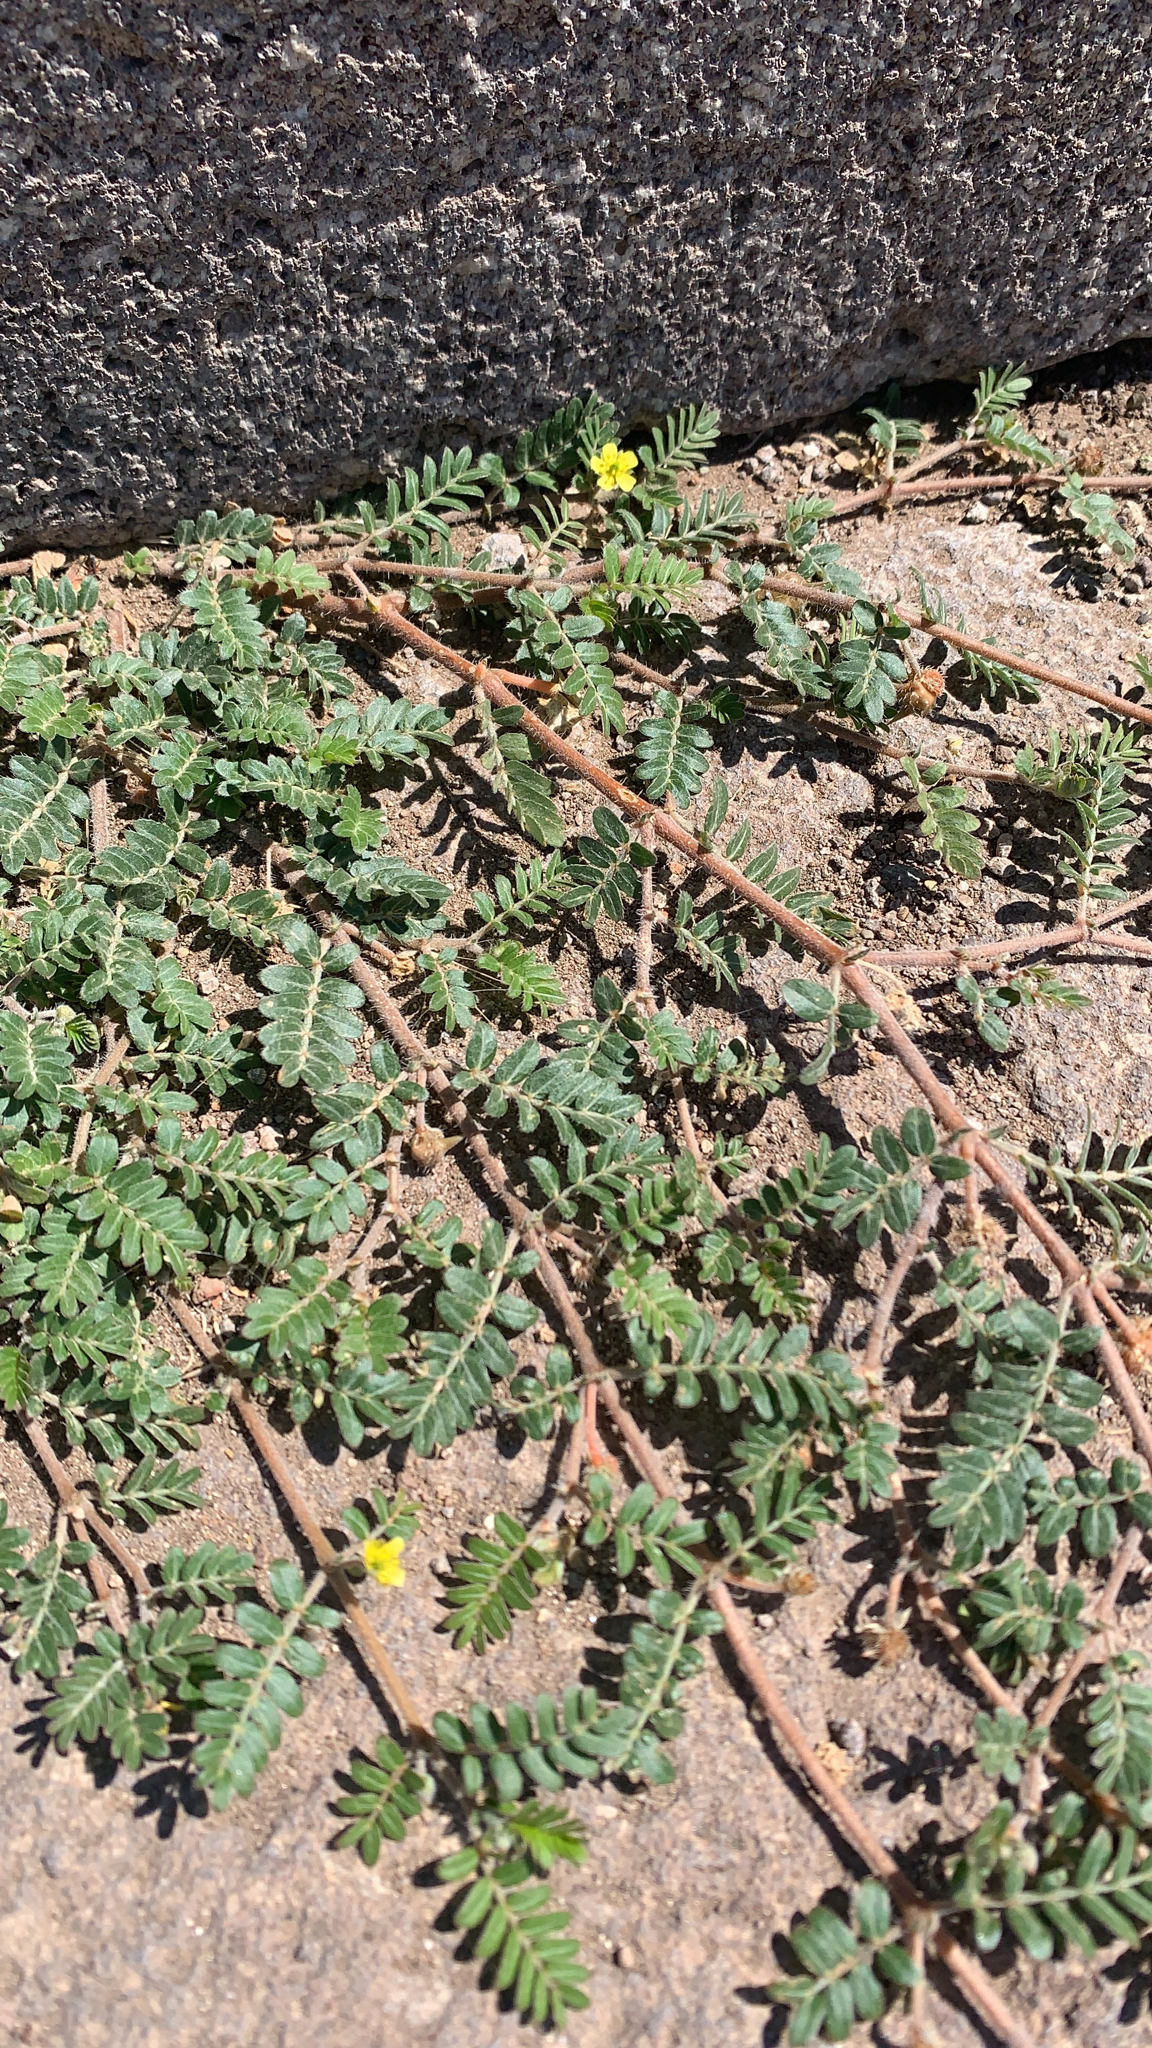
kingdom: Plantae
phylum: Tracheophyta
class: Magnoliopsida
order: Zygophyllales
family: Zygophyllaceae
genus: Tribulus
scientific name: Tribulus terrestris
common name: Puncturevine
